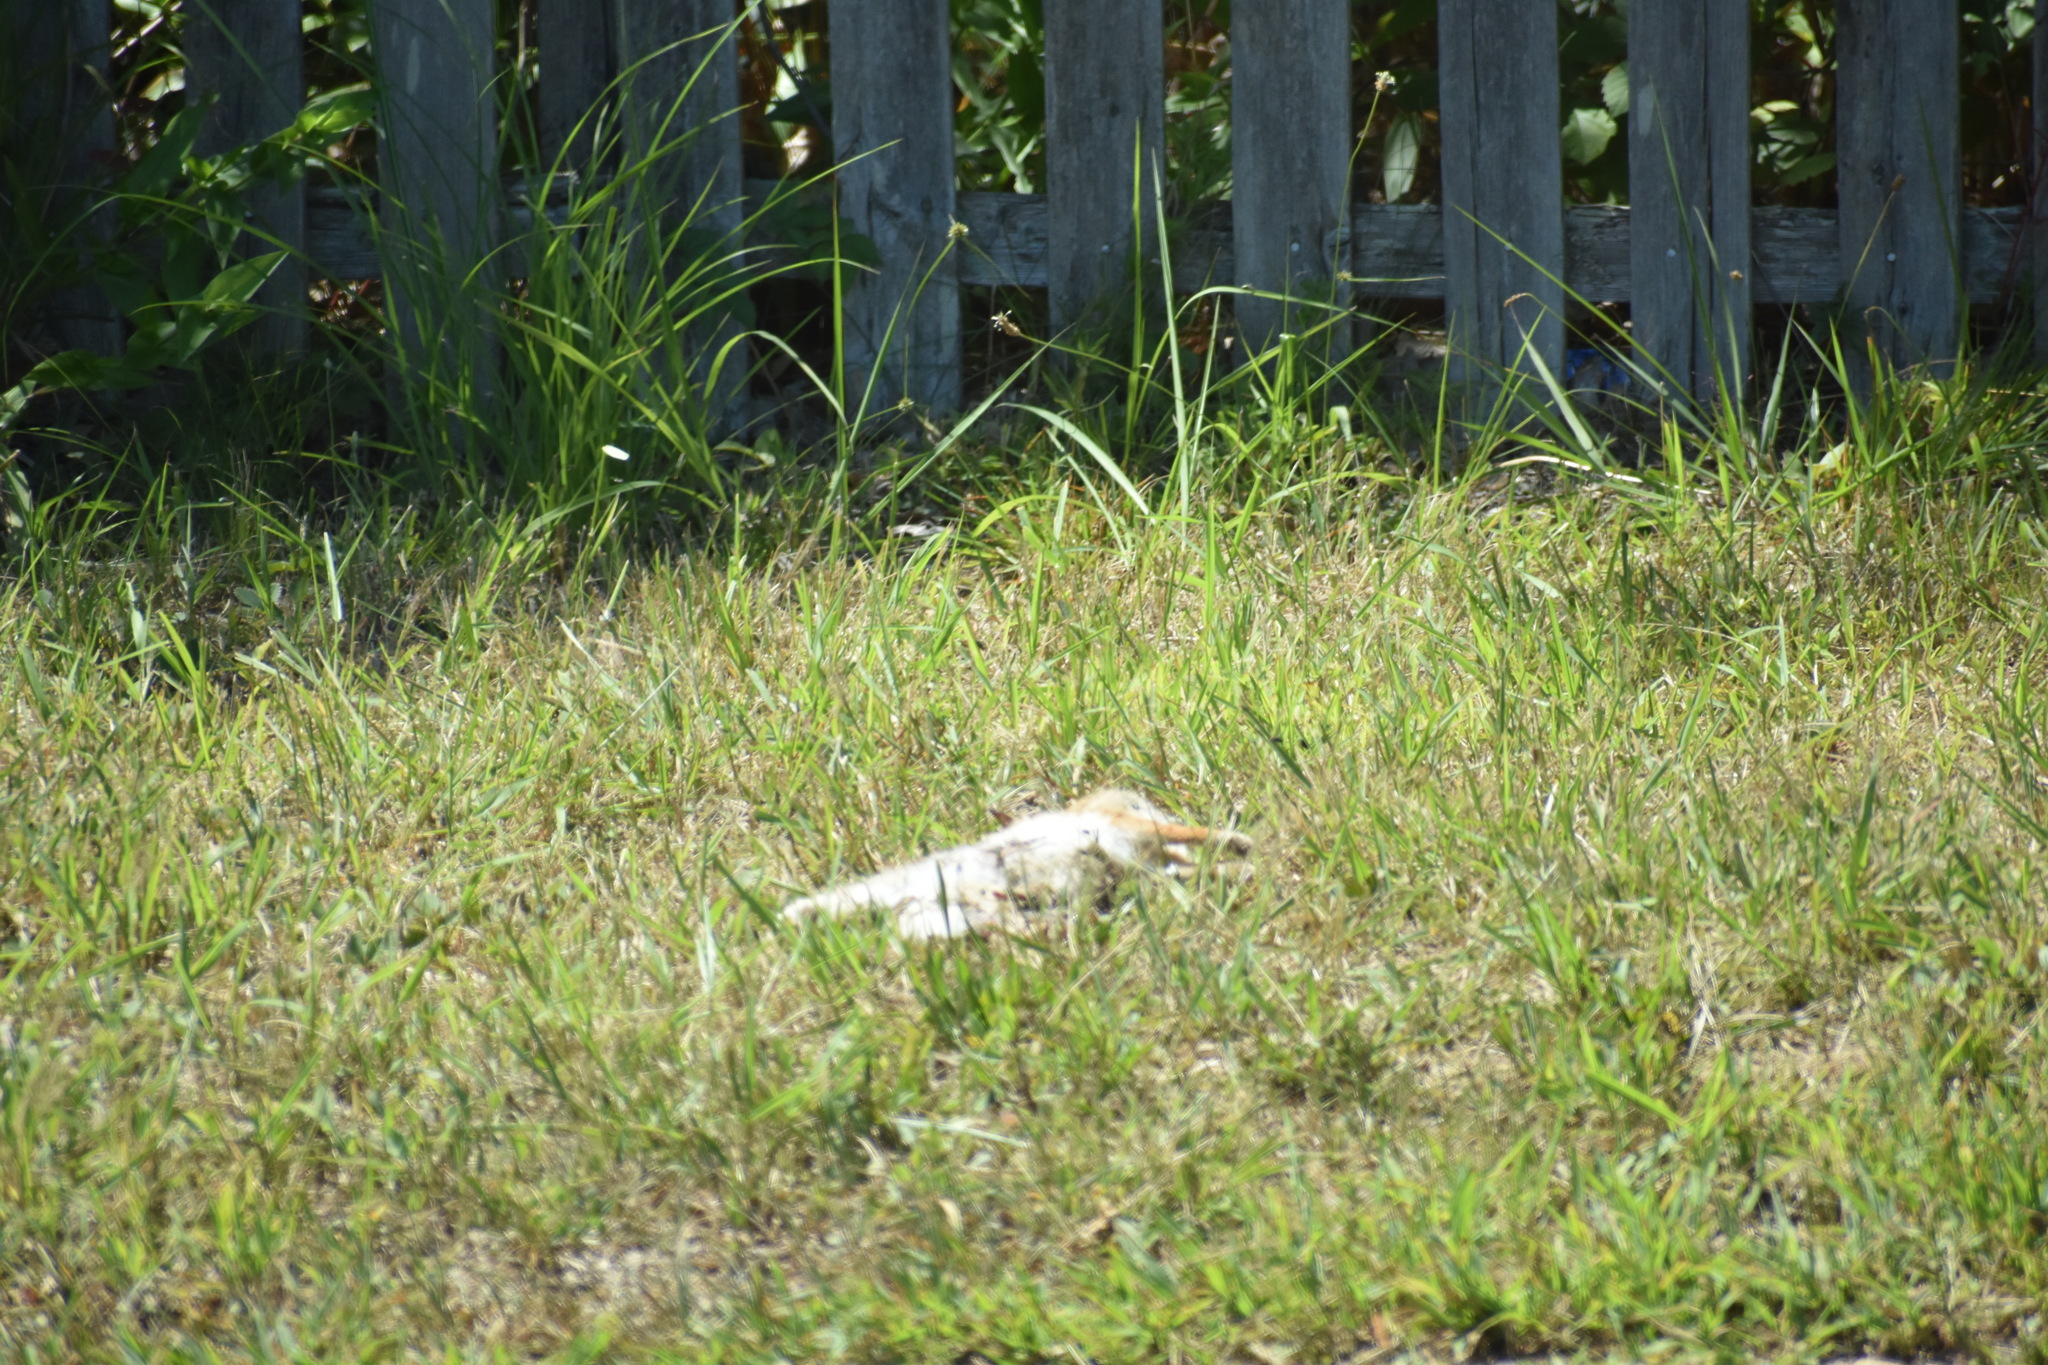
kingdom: Animalia
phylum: Chordata
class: Mammalia
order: Lagomorpha
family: Leporidae
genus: Sylvilagus
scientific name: Sylvilagus floridanus
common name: Eastern cottontail
